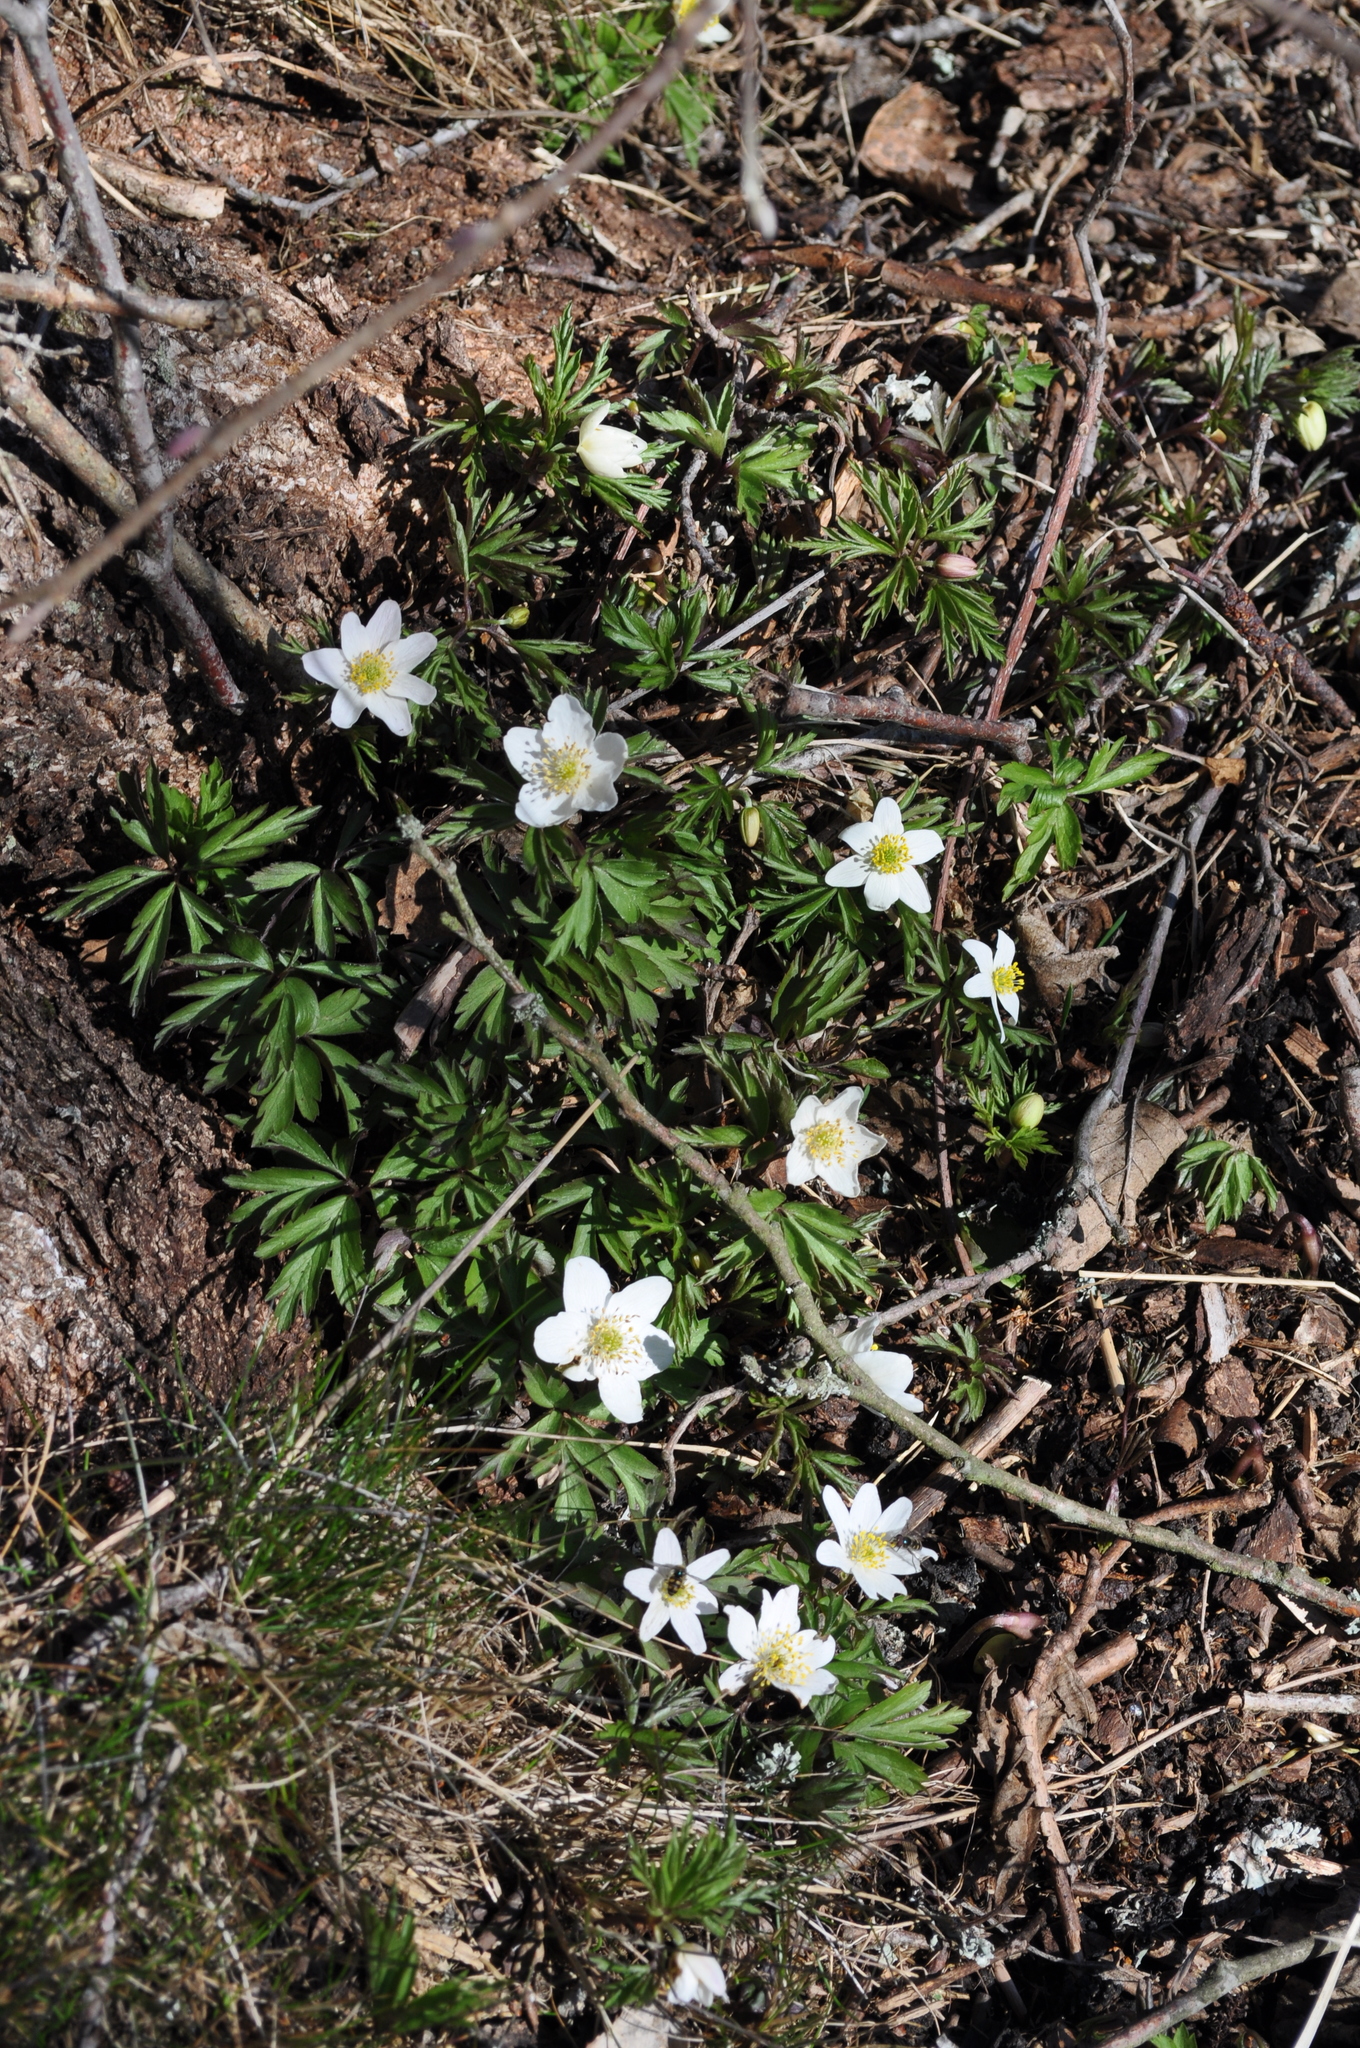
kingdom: Plantae
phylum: Tracheophyta
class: Magnoliopsida
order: Ranunculales
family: Ranunculaceae
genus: Anemone
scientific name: Anemone nemorosa
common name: Wood anemone
